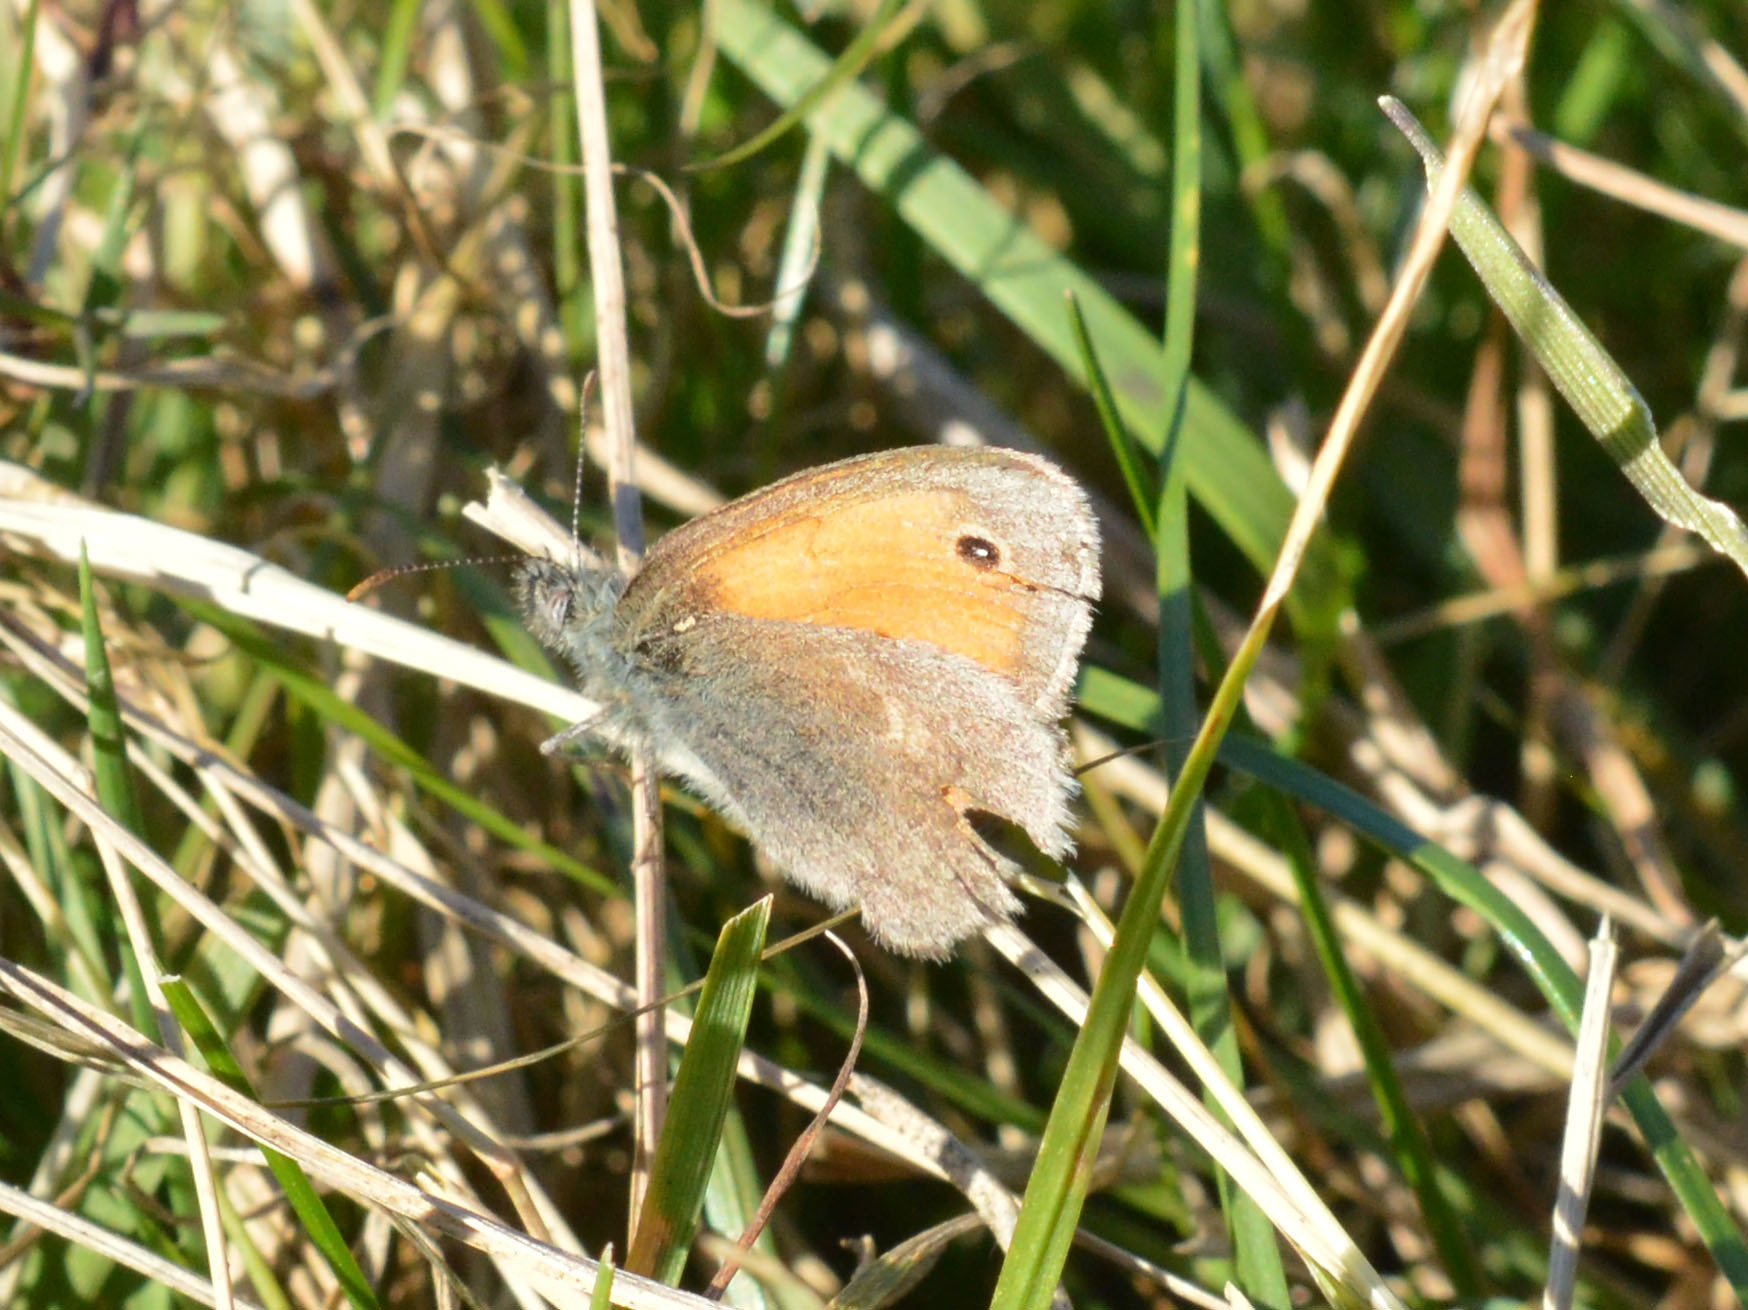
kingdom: Animalia
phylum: Arthropoda
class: Insecta
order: Lepidoptera
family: Nymphalidae
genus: Coenonympha
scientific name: Coenonympha pamphilus
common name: Small heath
